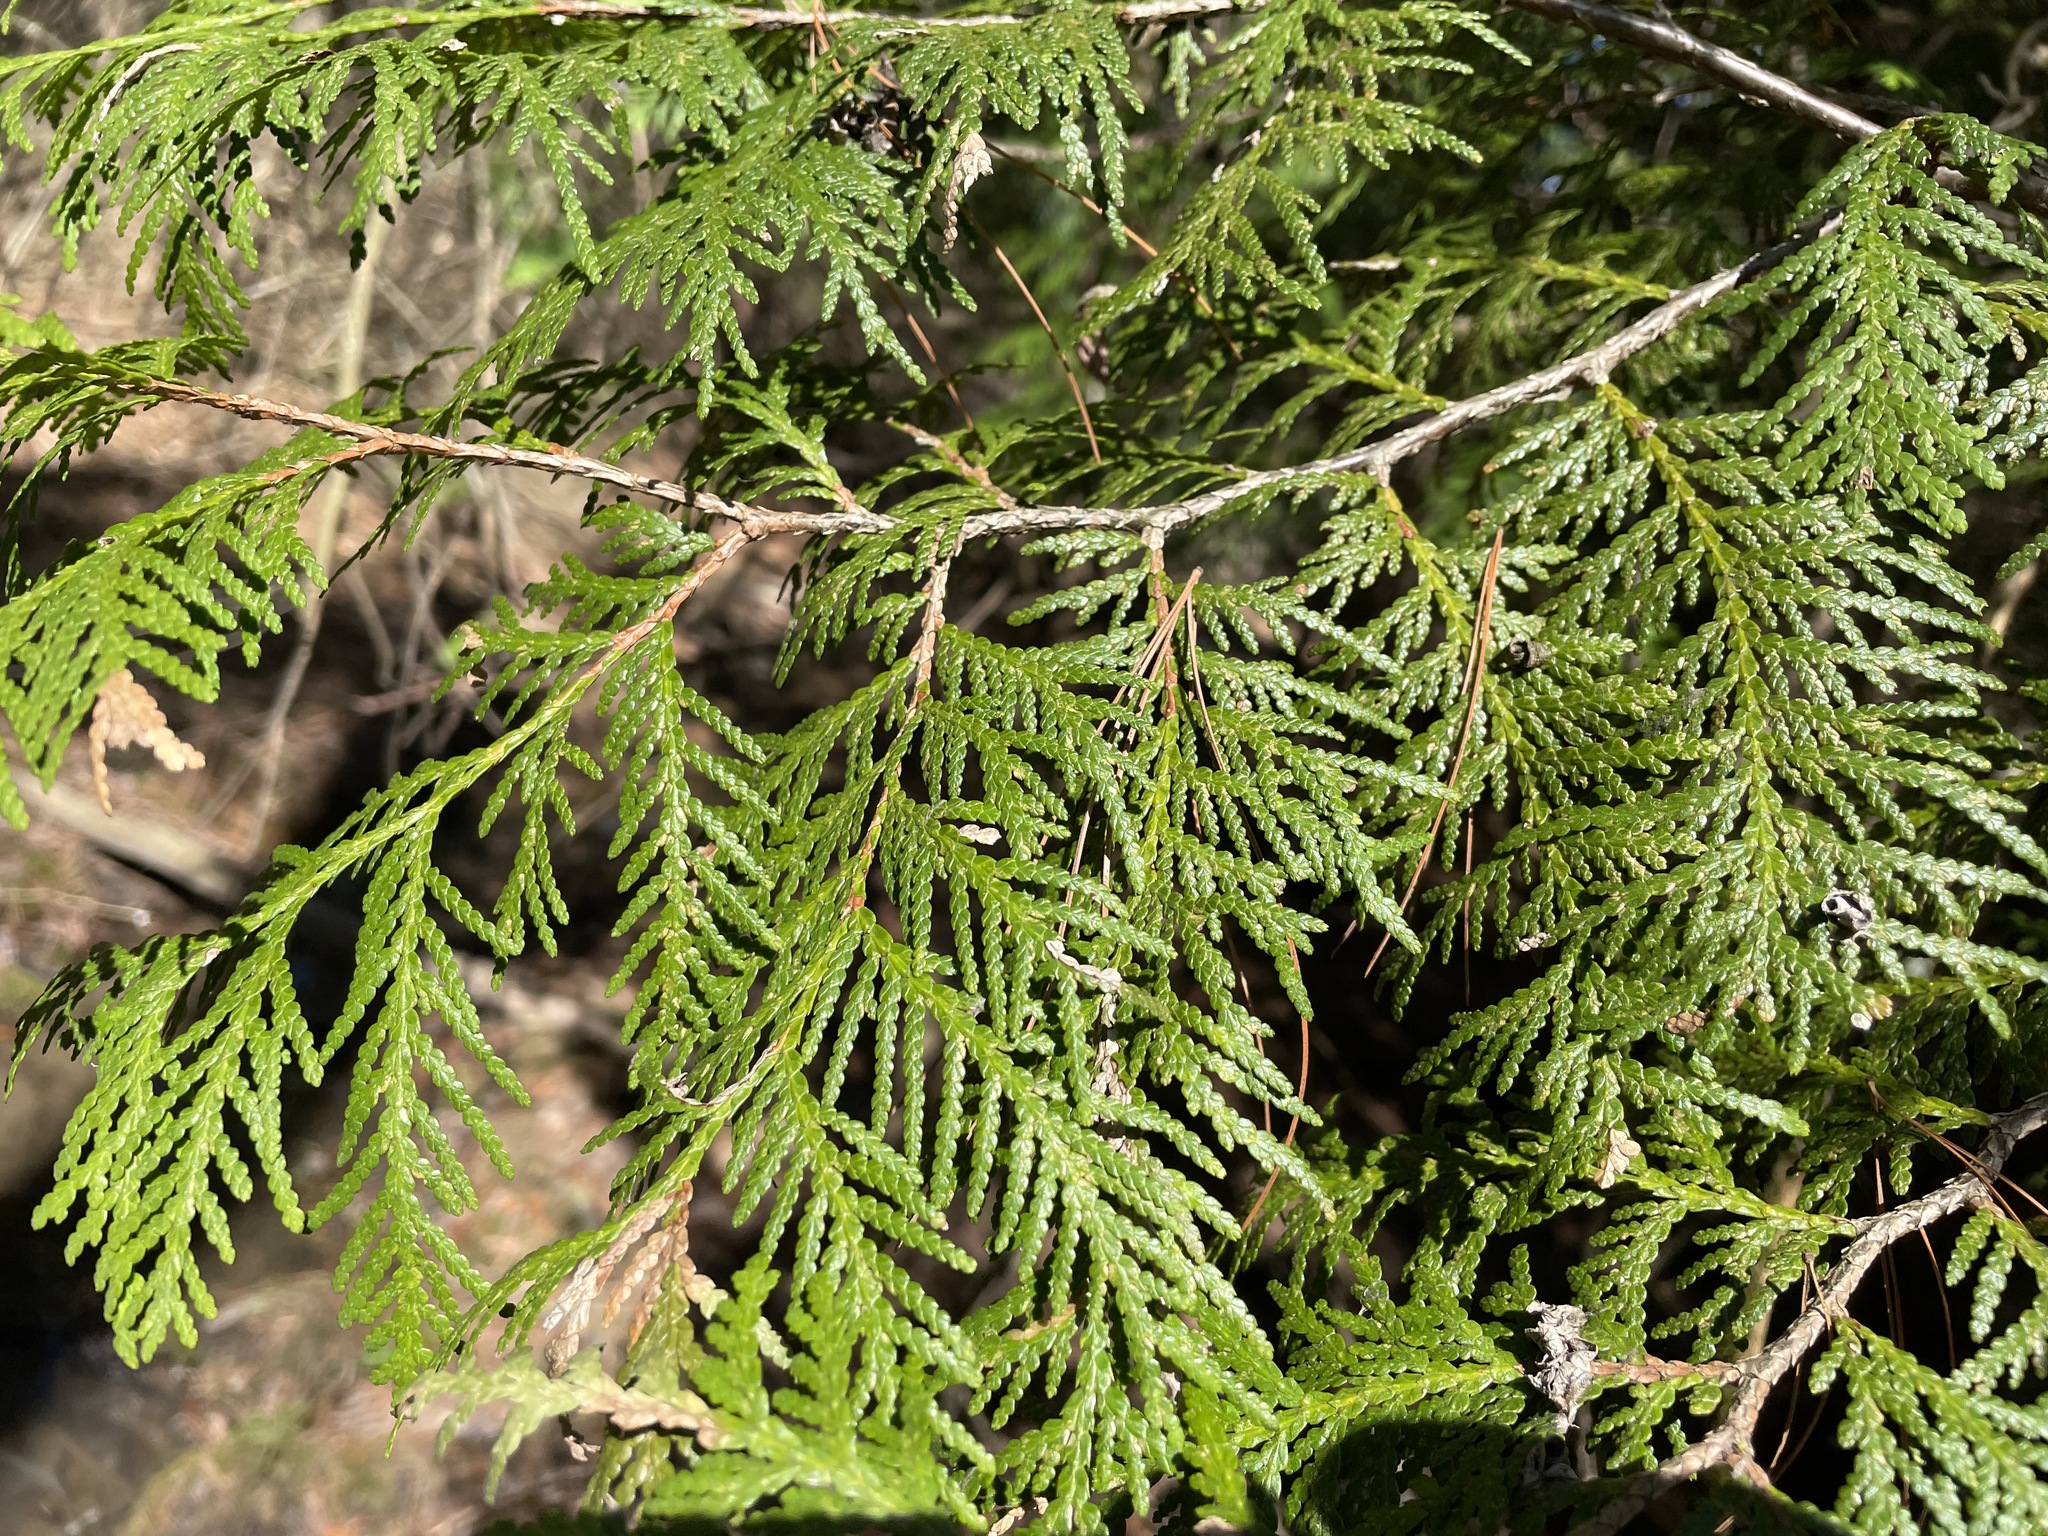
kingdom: Plantae
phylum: Tracheophyta
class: Pinopsida
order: Pinales
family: Cupressaceae
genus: Thuja
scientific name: Thuja occidentalis
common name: Northern white-cedar
